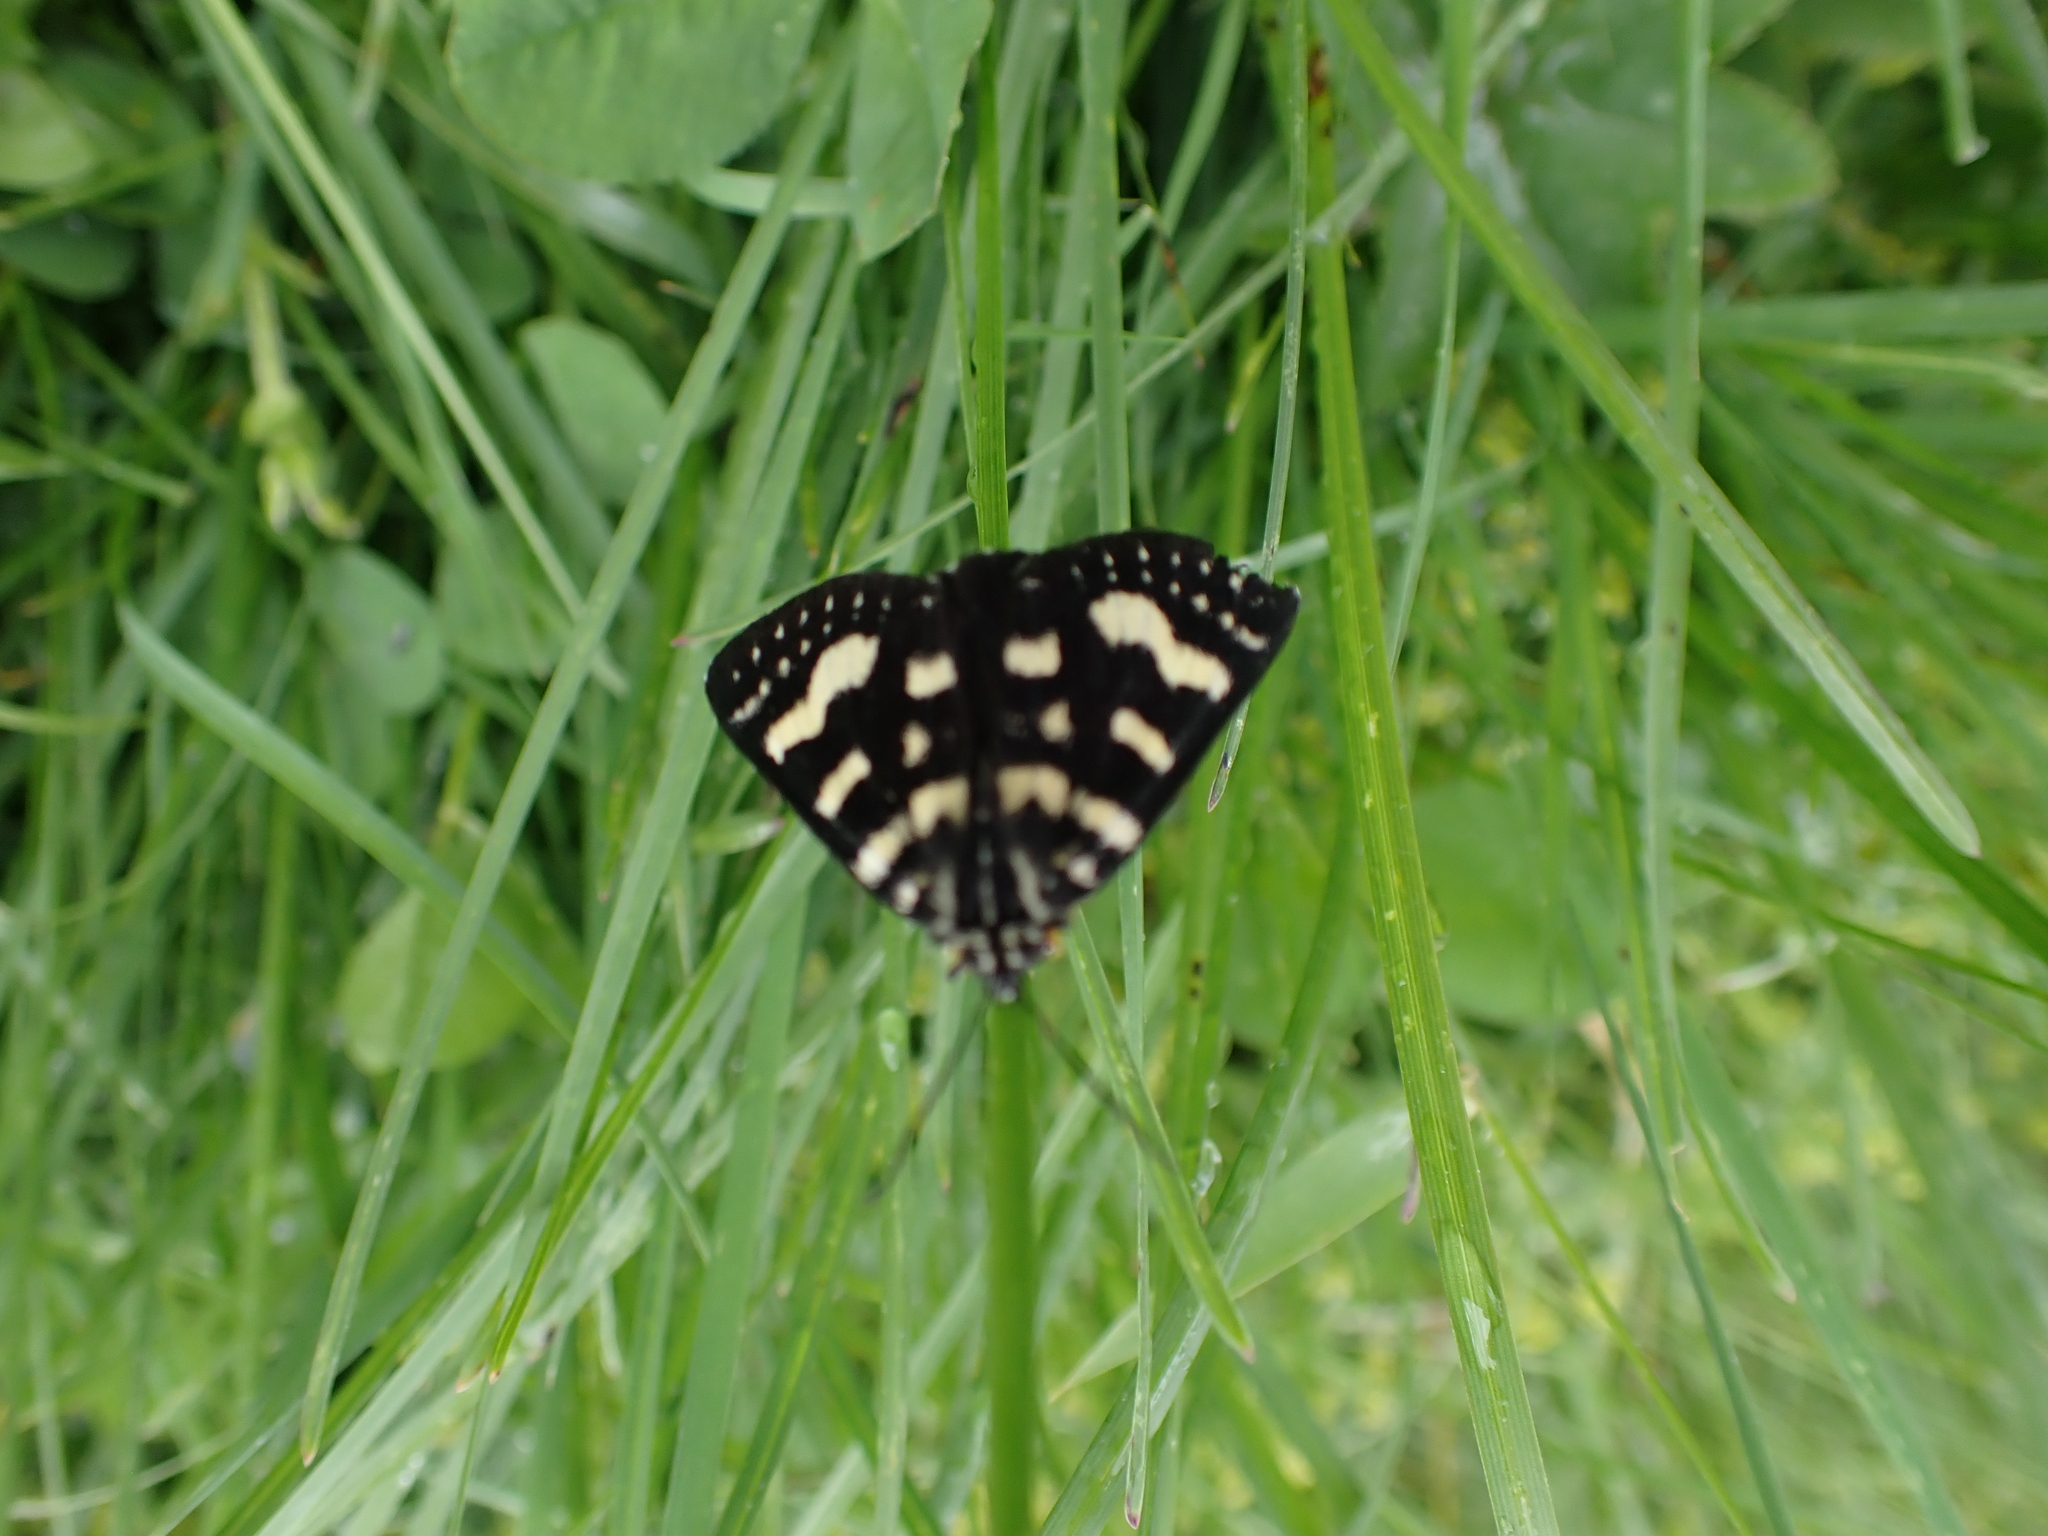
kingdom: Animalia
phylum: Arthropoda
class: Insecta
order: Lepidoptera
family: Noctuidae
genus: Phalaenoides
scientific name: Phalaenoides tristifica
